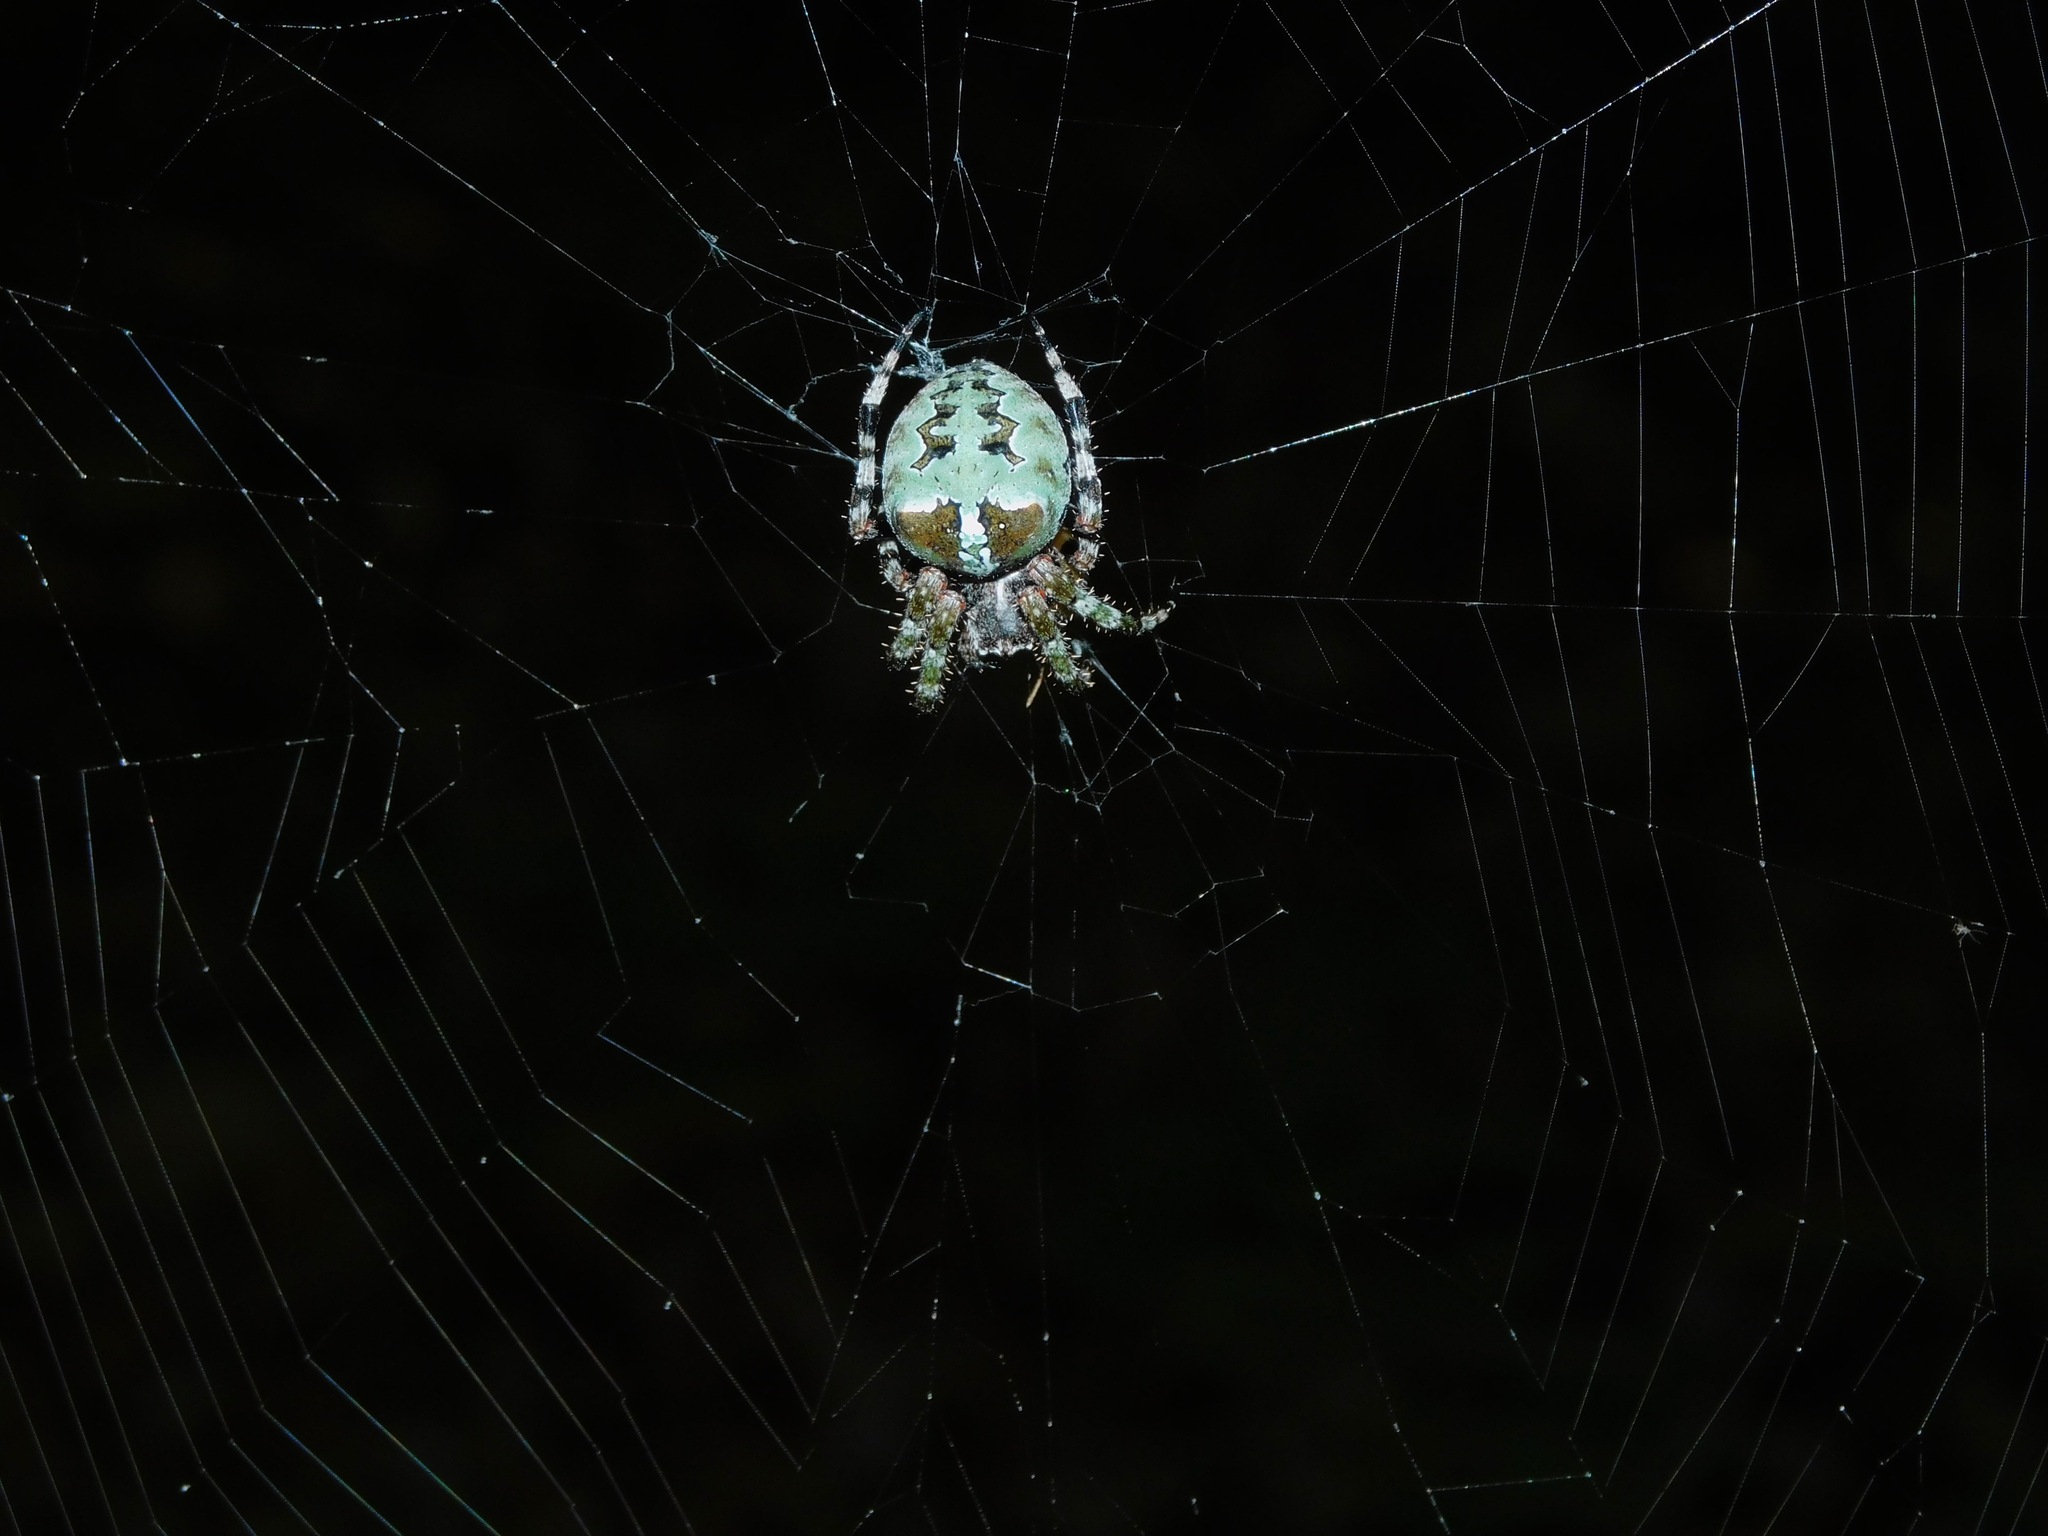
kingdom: Animalia
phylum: Arthropoda
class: Arachnida
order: Araneae
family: Araneidae
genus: Araneus
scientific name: Araneus bicentenarius
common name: Giant lichen orbweaver
